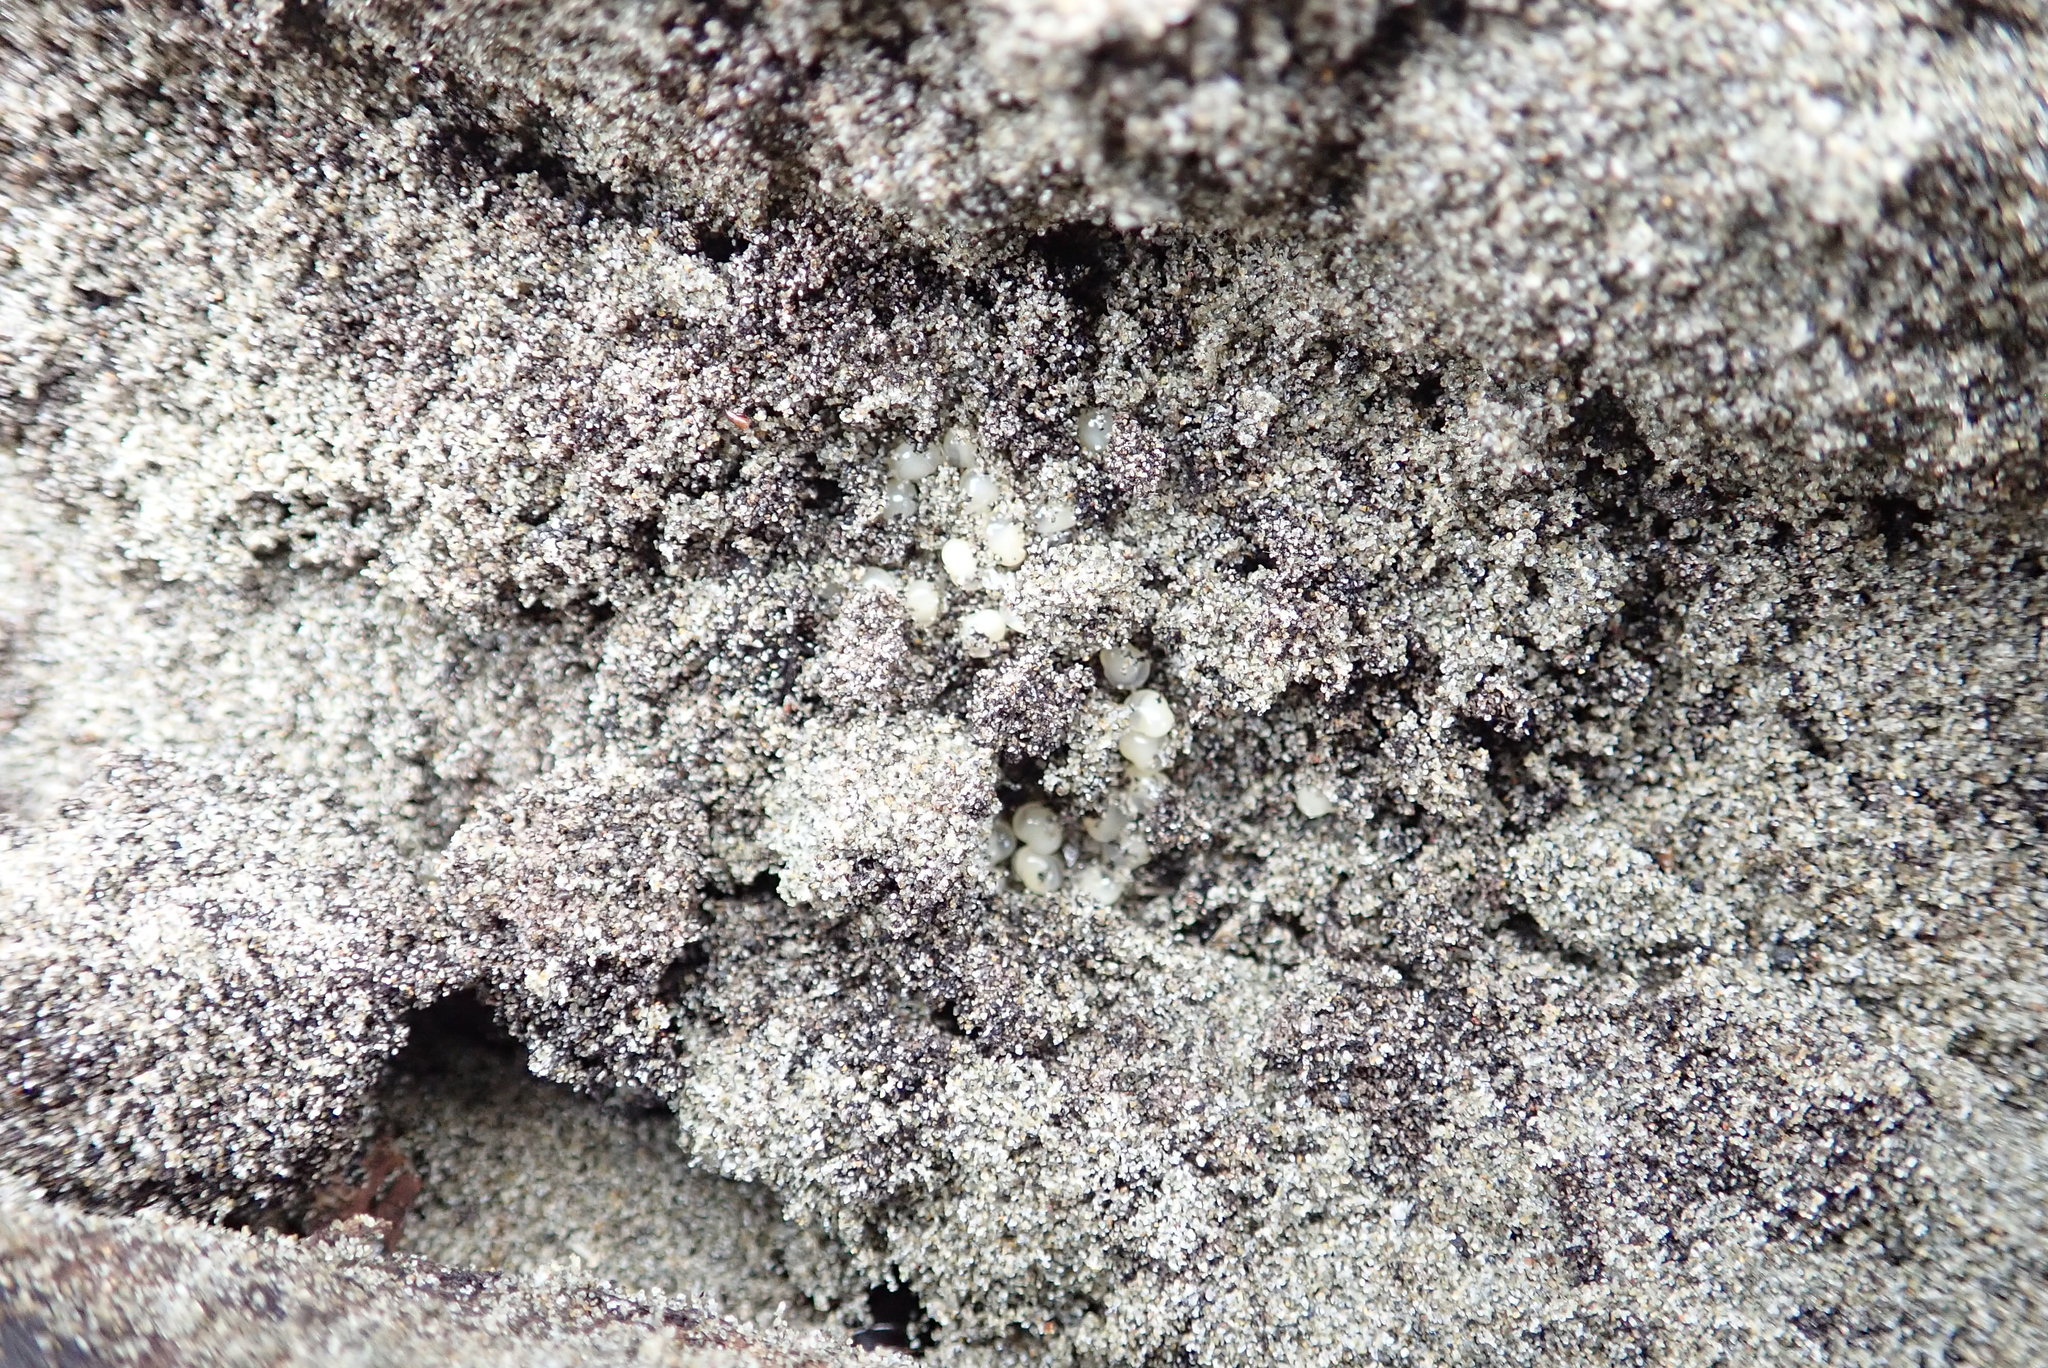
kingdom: Animalia
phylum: Arthropoda
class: Insecta
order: Dermaptera
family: Anisolabididae
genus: Anisolabis
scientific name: Anisolabis littorea
